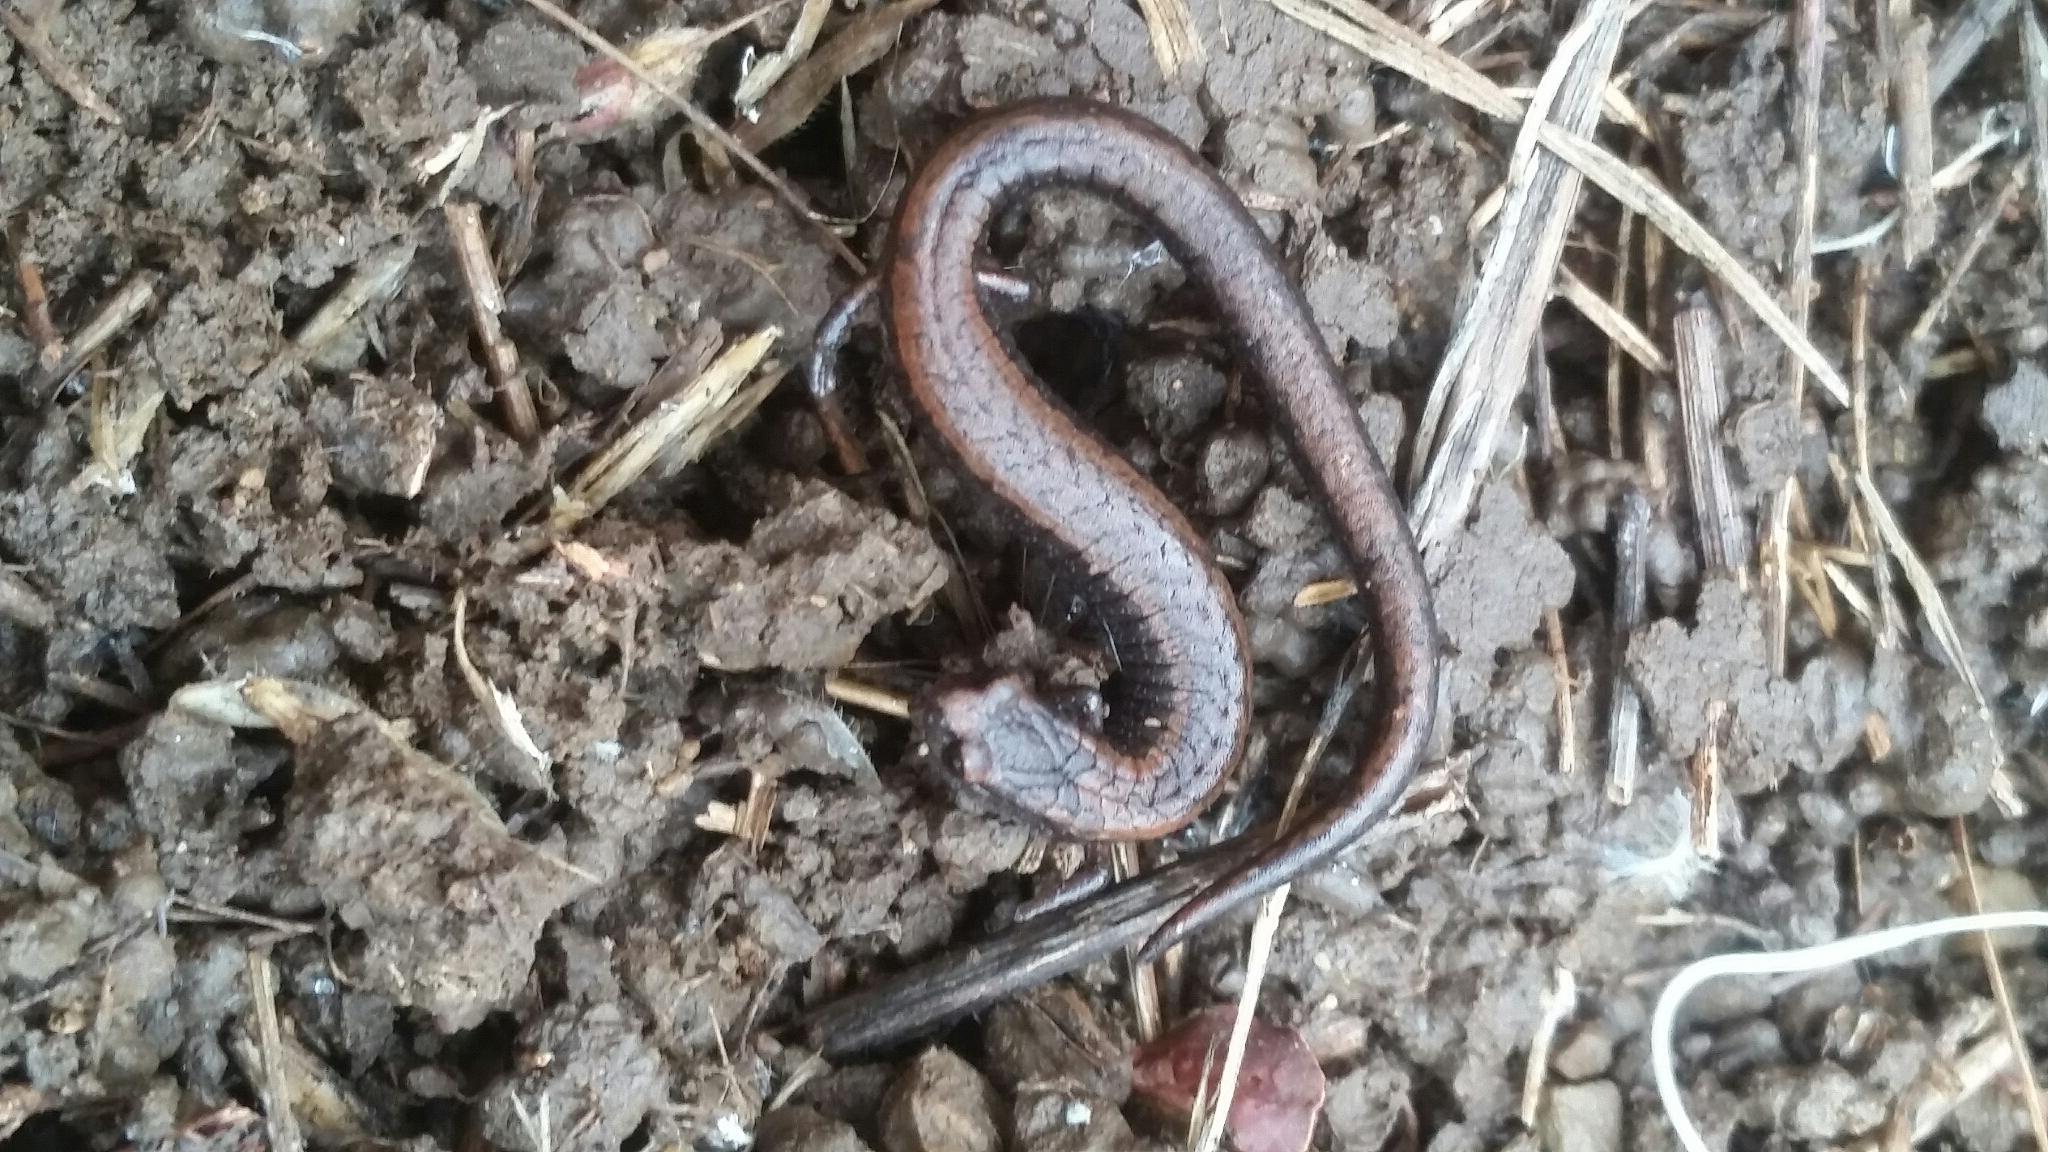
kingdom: Animalia
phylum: Chordata
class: Amphibia
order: Caudata
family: Plethodontidae
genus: Batrachoseps
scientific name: Batrachoseps attenuatus
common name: California slender salamander
